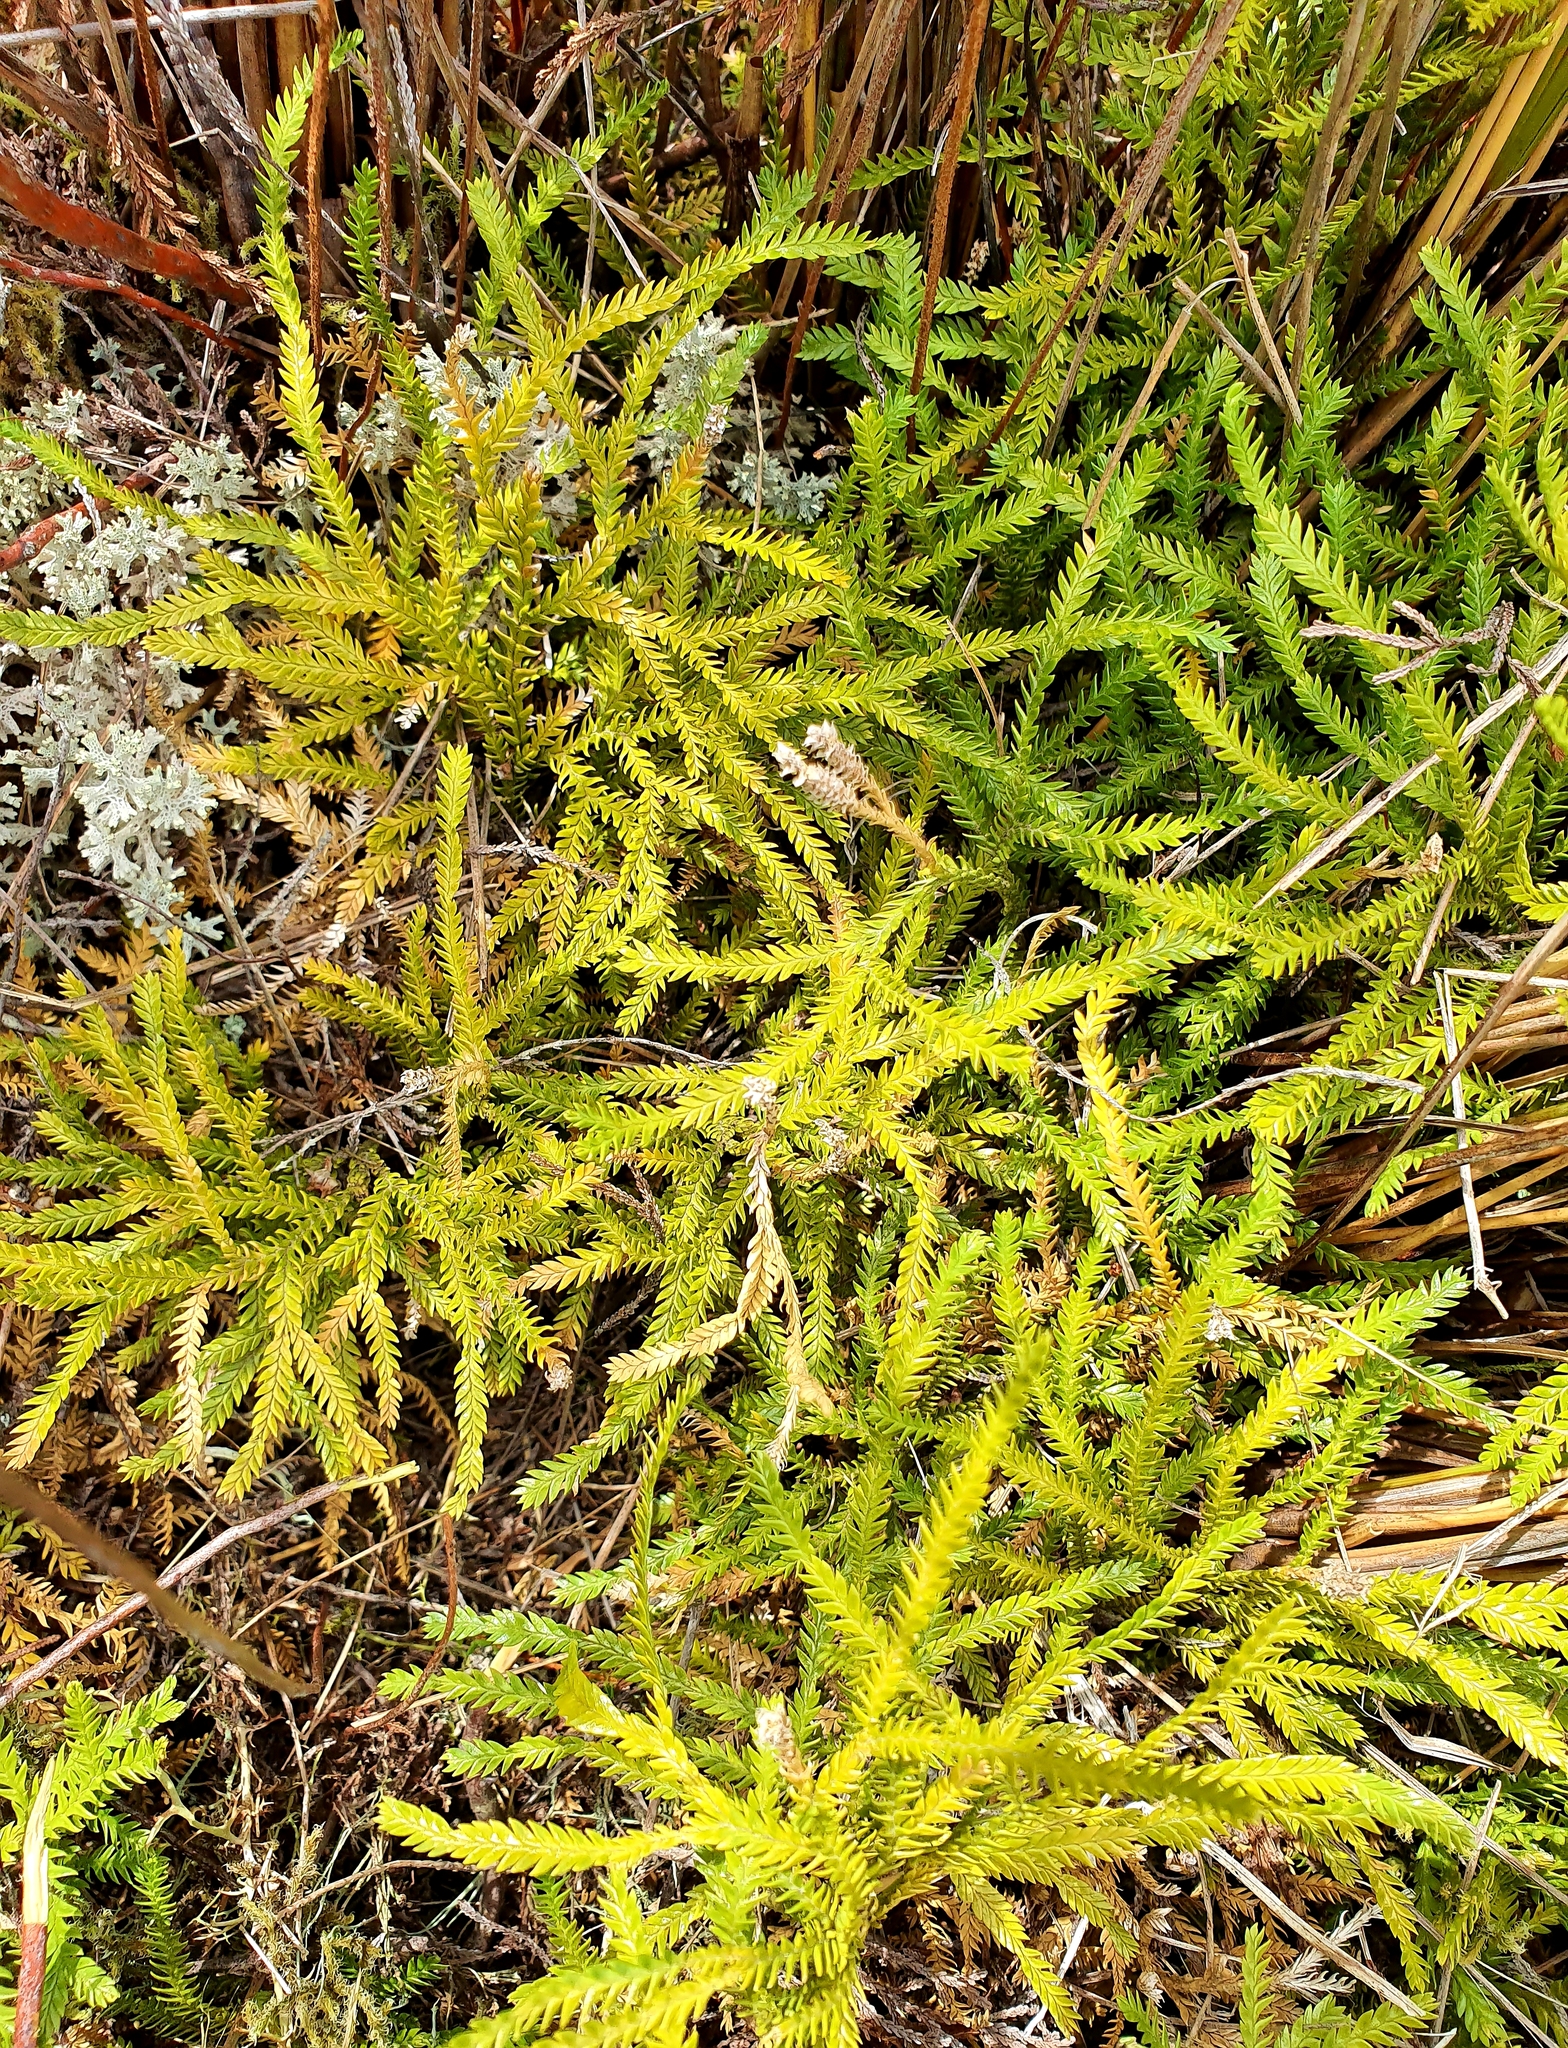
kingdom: Plantae
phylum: Tracheophyta
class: Lycopodiopsida
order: Lycopodiales
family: Lycopodiaceae
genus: Diphasium
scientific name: Diphasium scariosum
